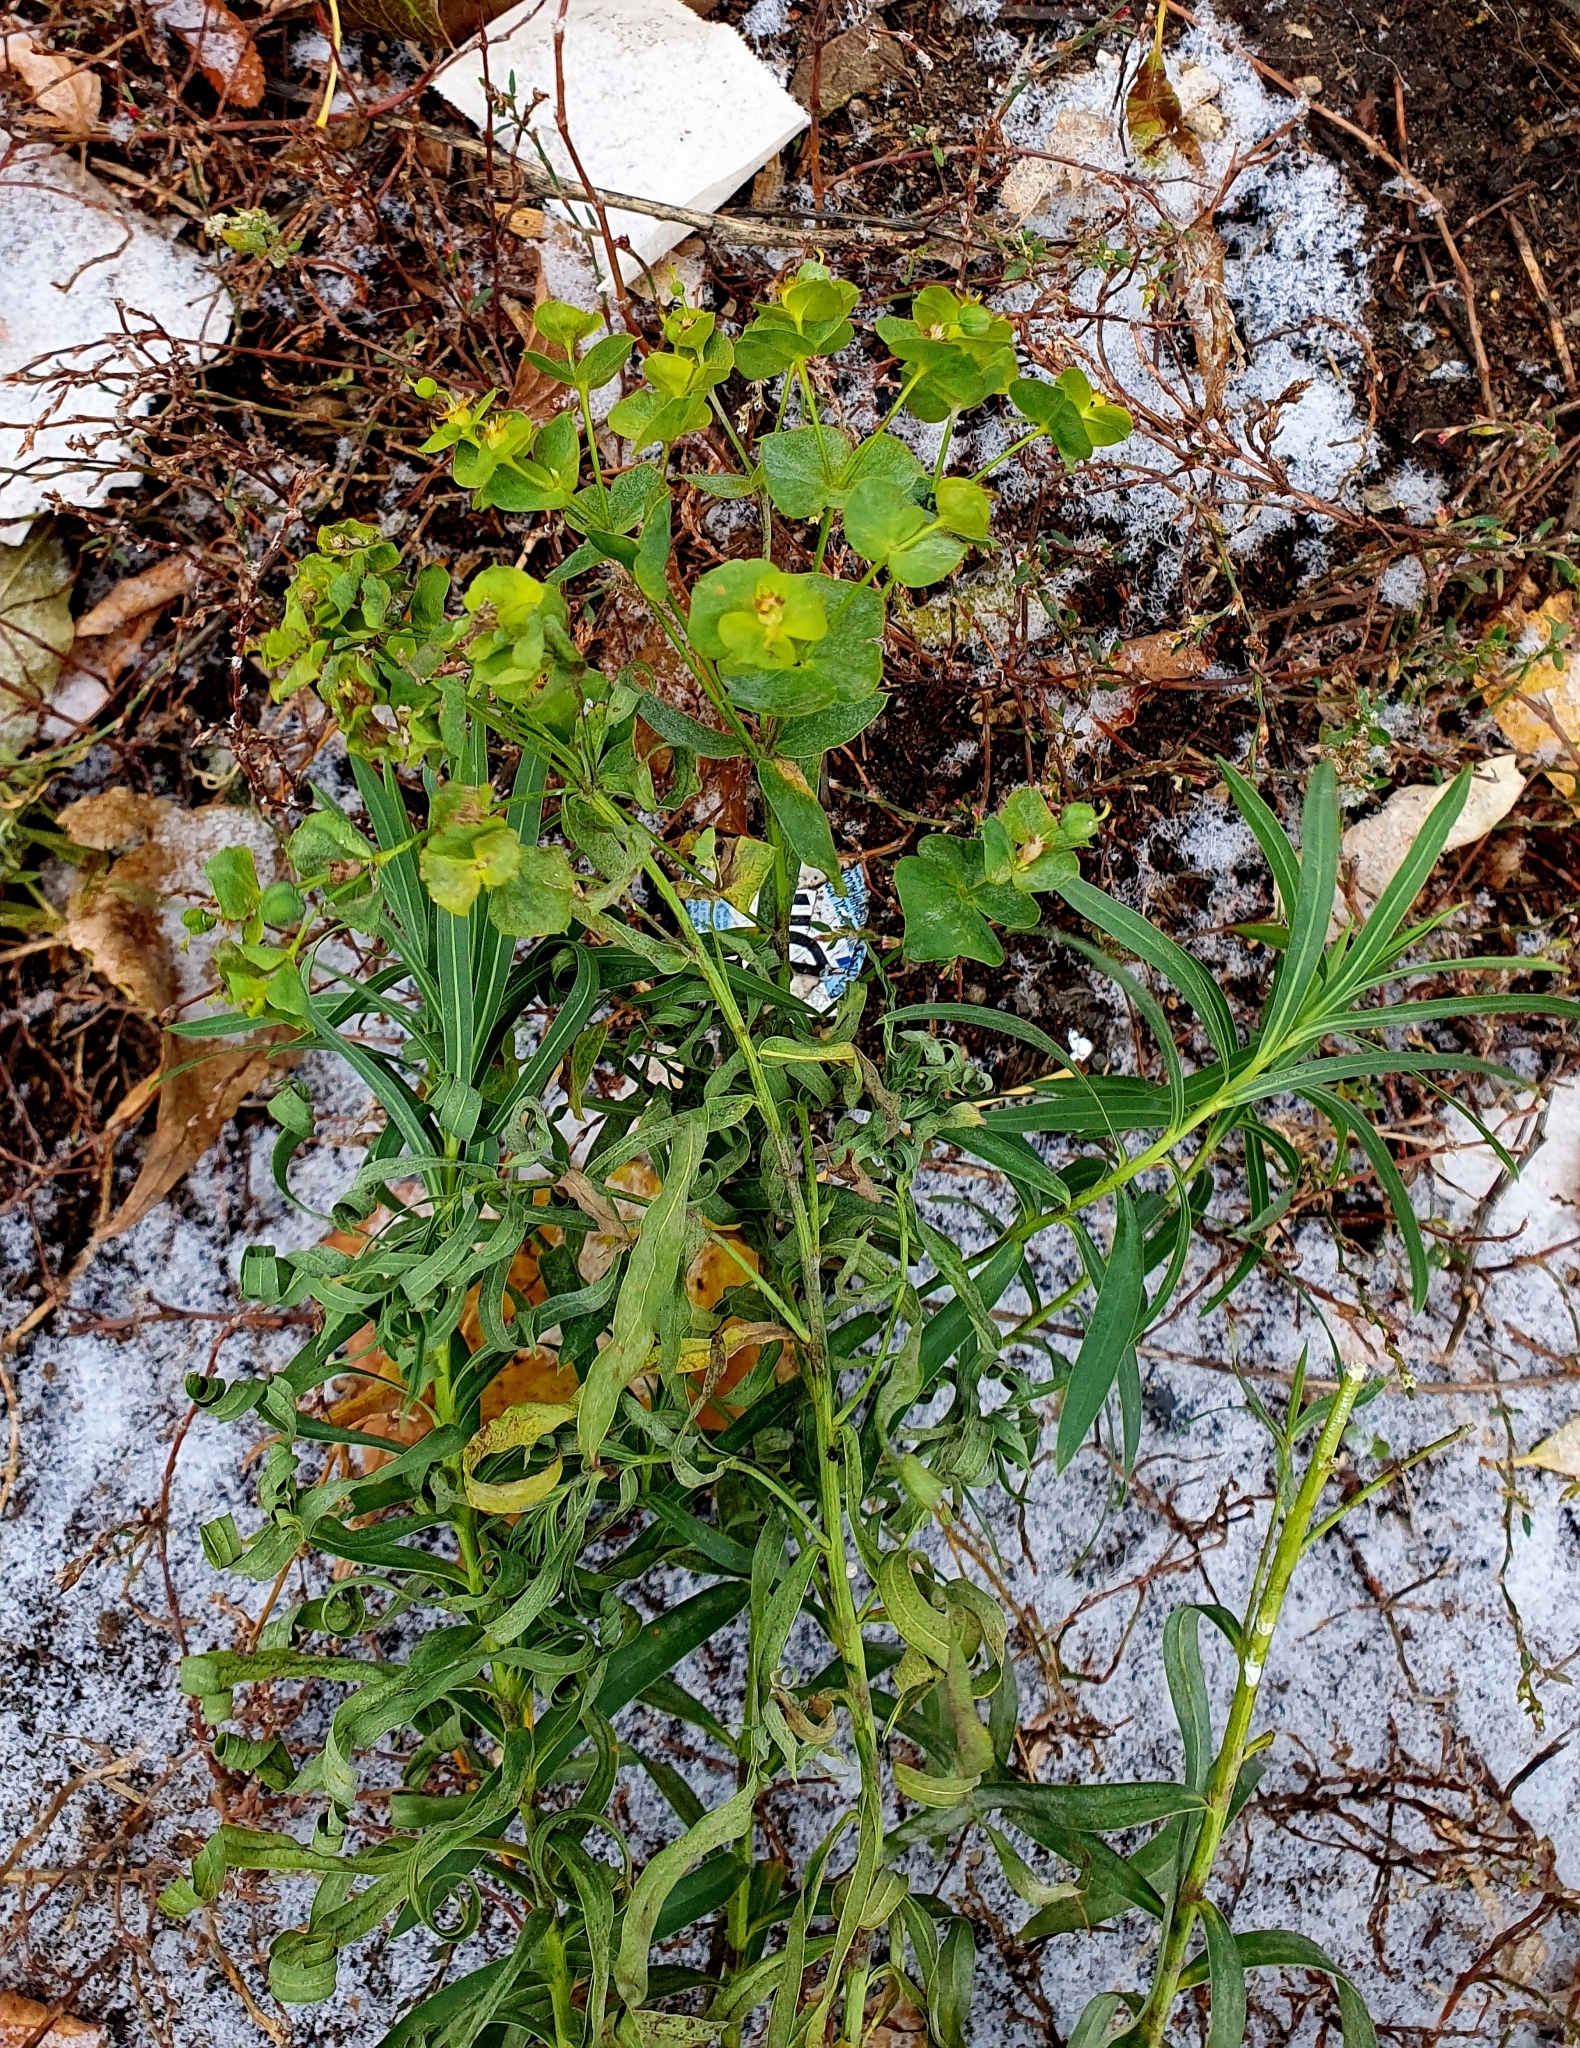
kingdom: Plantae
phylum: Tracheophyta
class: Magnoliopsida
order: Malpighiales
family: Euphorbiaceae
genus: Euphorbia
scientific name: Euphorbia virgata
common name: Leafy spurge
